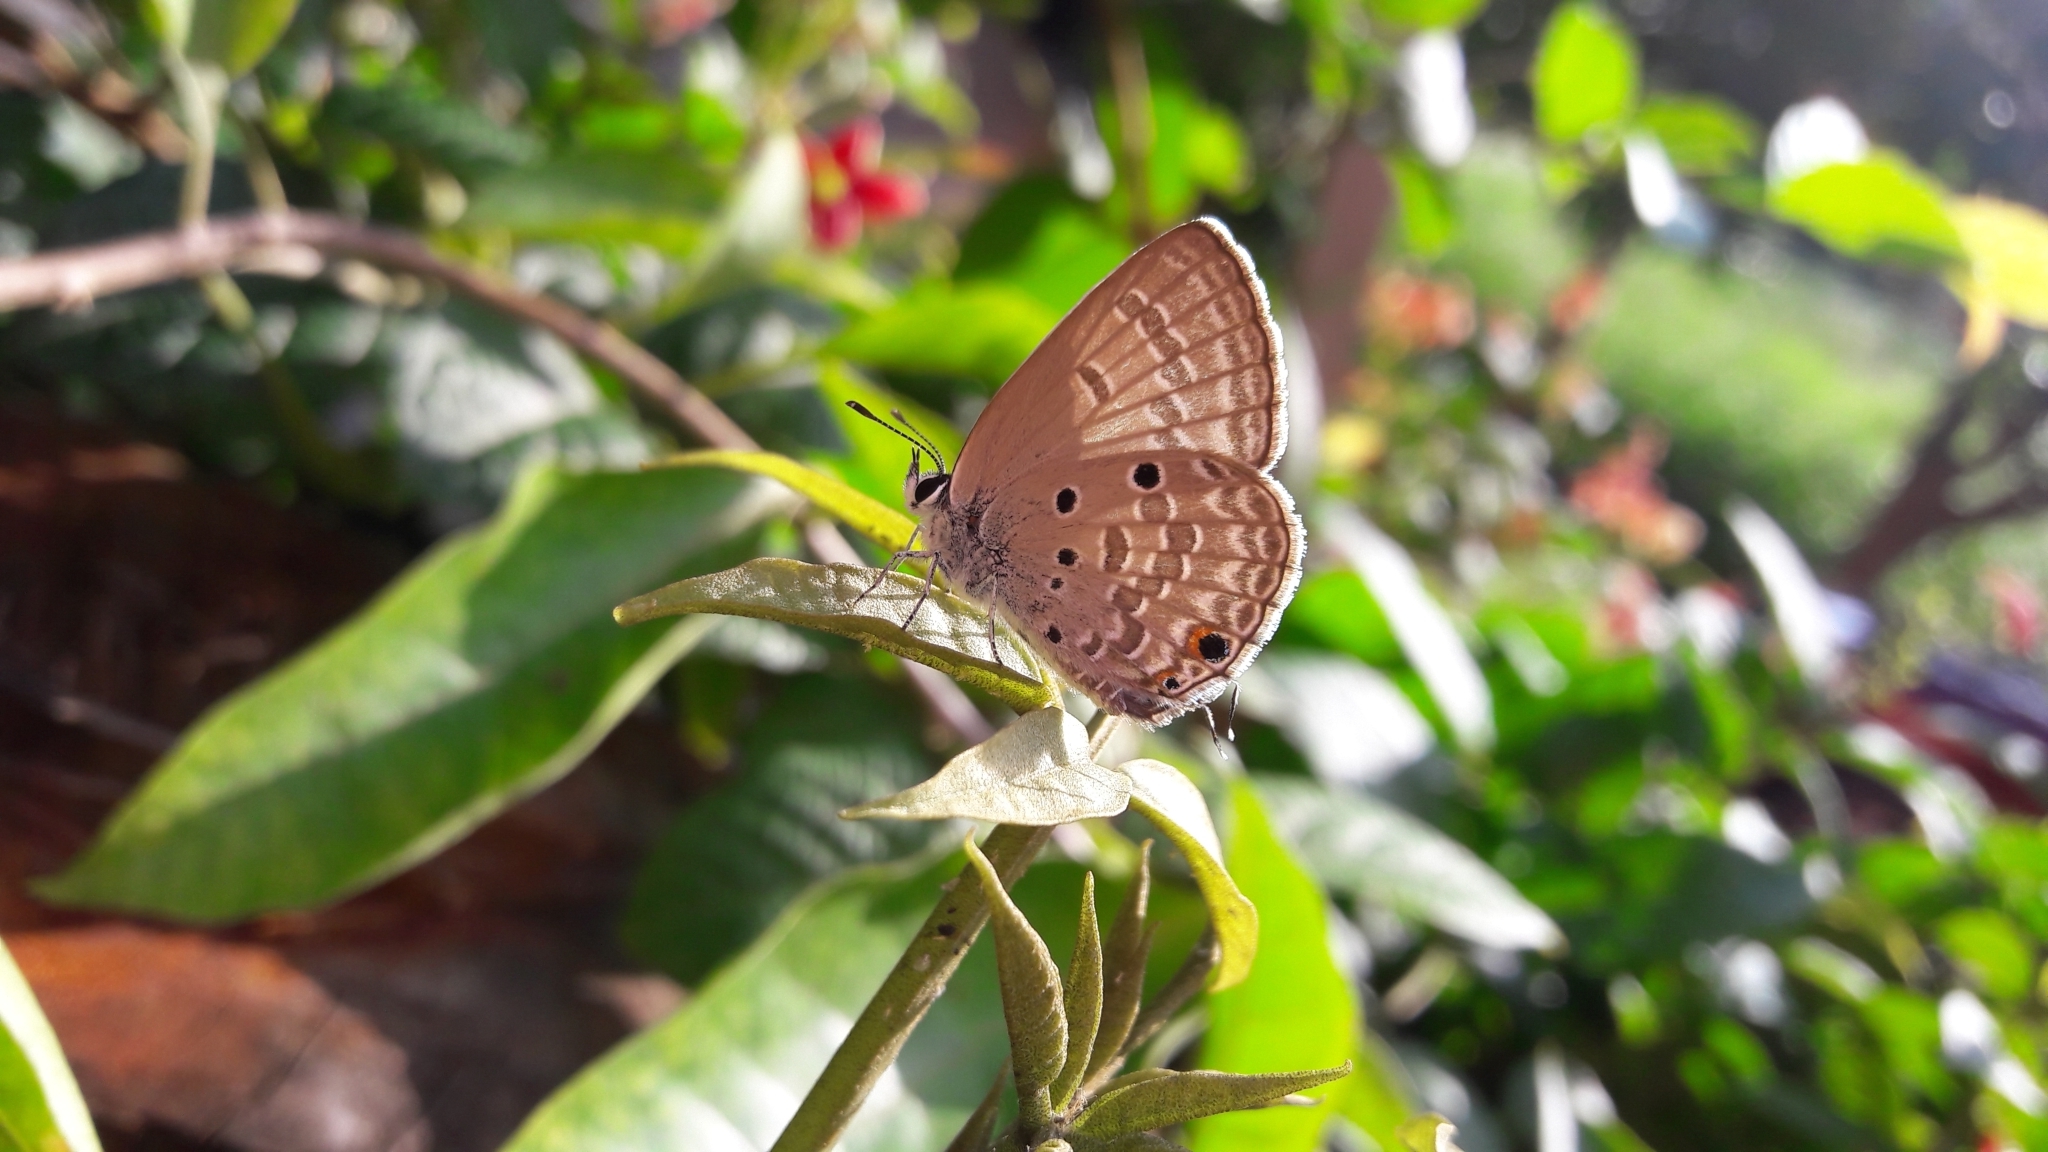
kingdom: Animalia
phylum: Arthropoda
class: Insecta
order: Lepidoptera
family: Lycaenidae
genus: Luthrodes
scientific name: Luthrodes pandava
